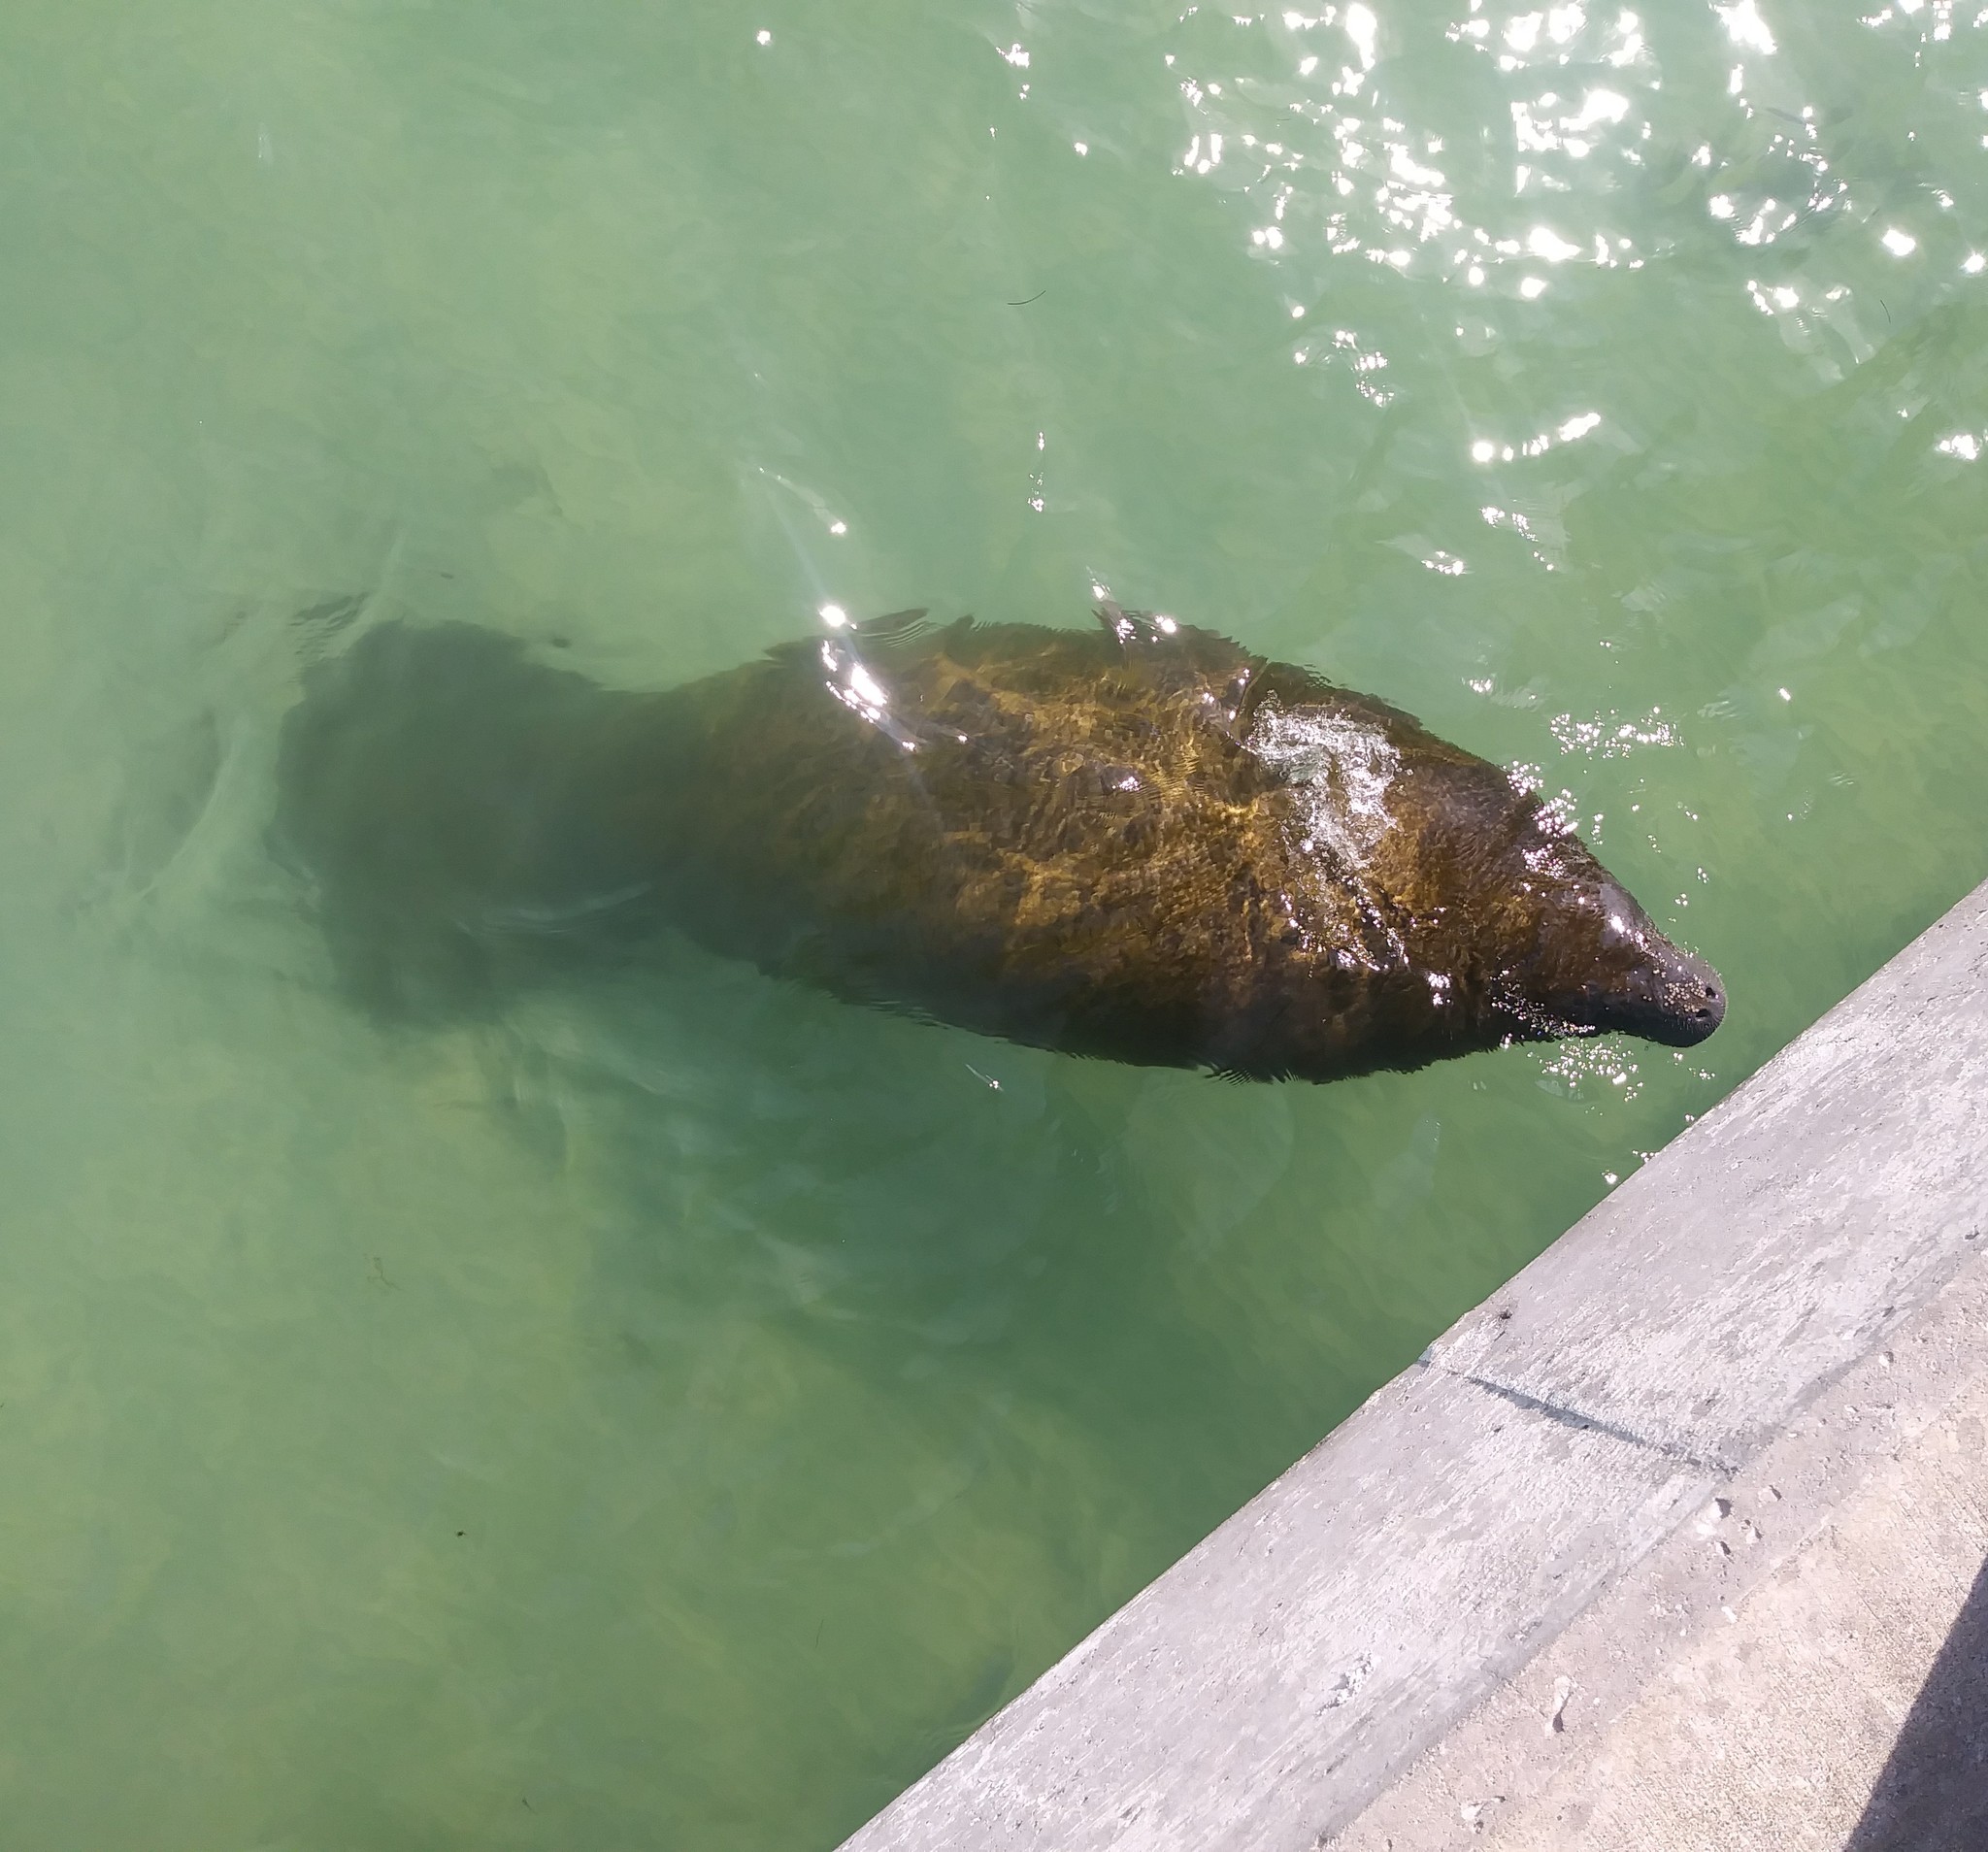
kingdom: Animalia
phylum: Chordata
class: Mammalia
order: Sirenia
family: Trichechidae
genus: Trichechus
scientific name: Trichechus manatus
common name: West indian manatee
